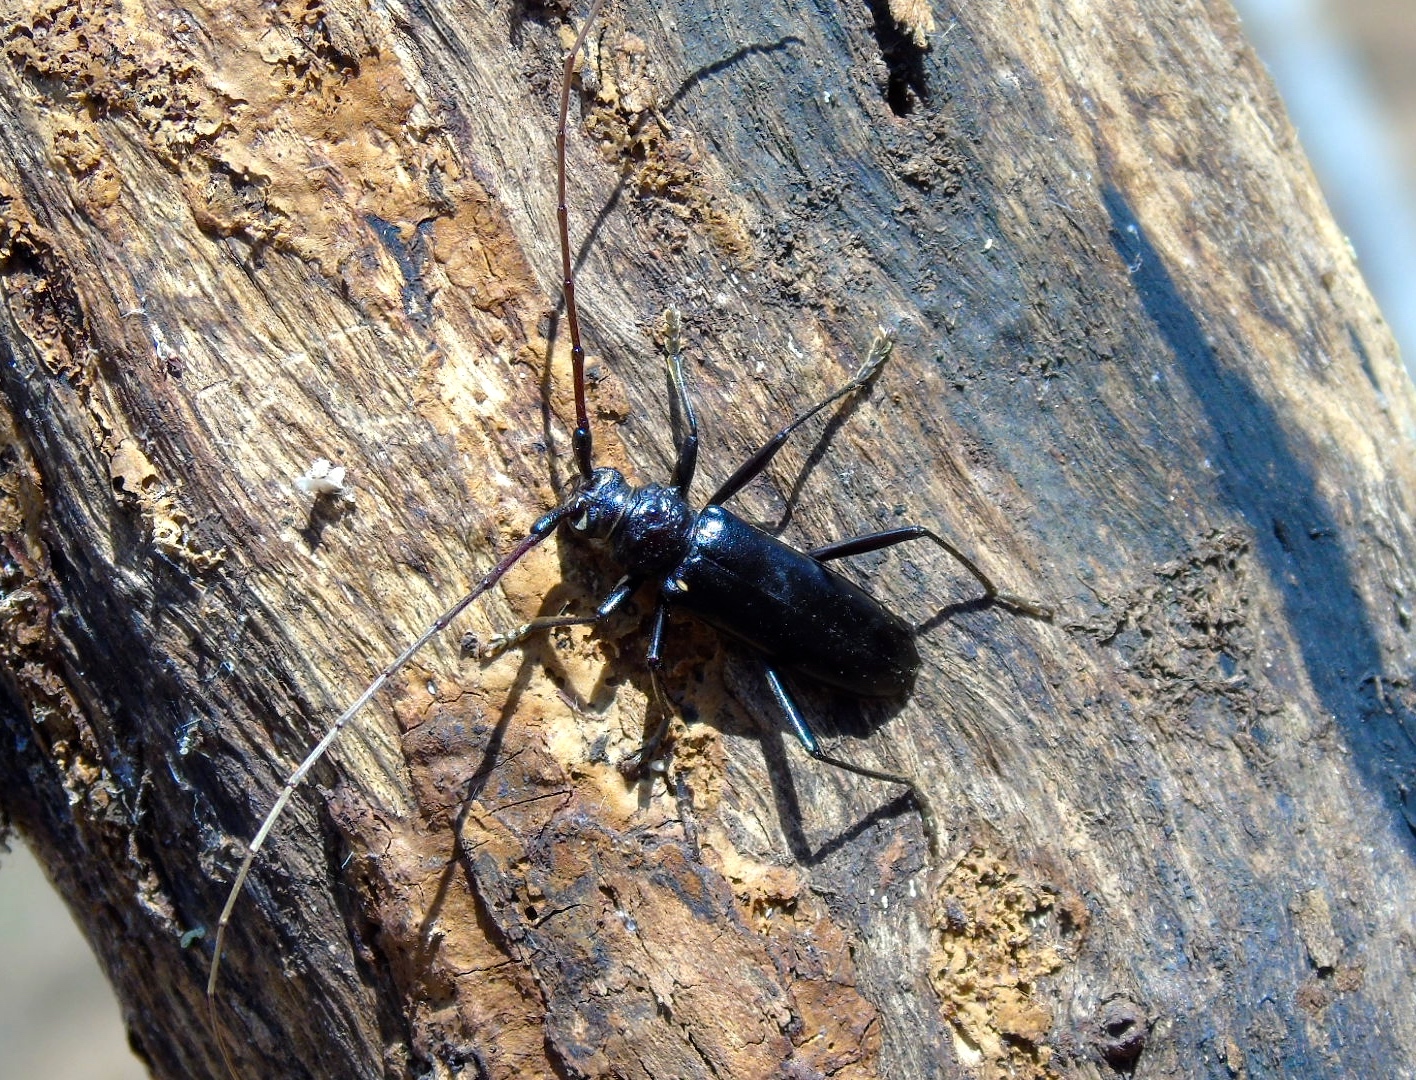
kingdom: Animalia
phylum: Arthropoda
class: Insecta
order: Coleoptera
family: Cerambycidae
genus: Susuacanga
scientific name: Susuacanga ulkei
